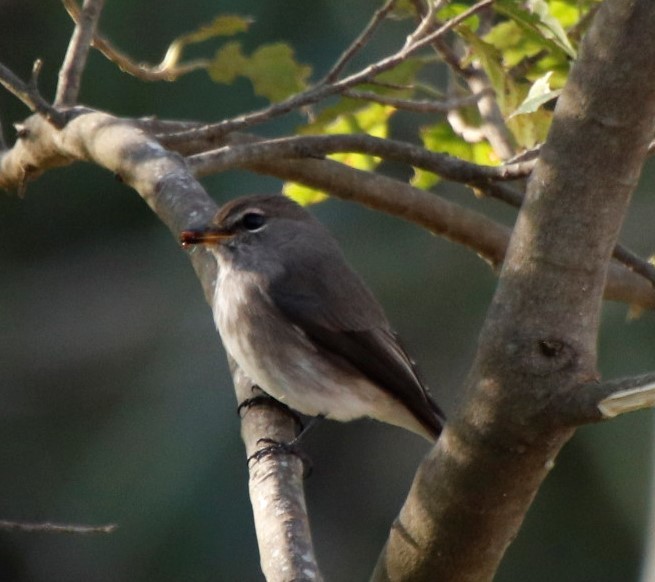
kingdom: Animalia
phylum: Chordata
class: Aves
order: Passeriformes
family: Muscicapidae
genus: Muscicapa
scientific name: Muscicapa adusta
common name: African dusky flycatcher
